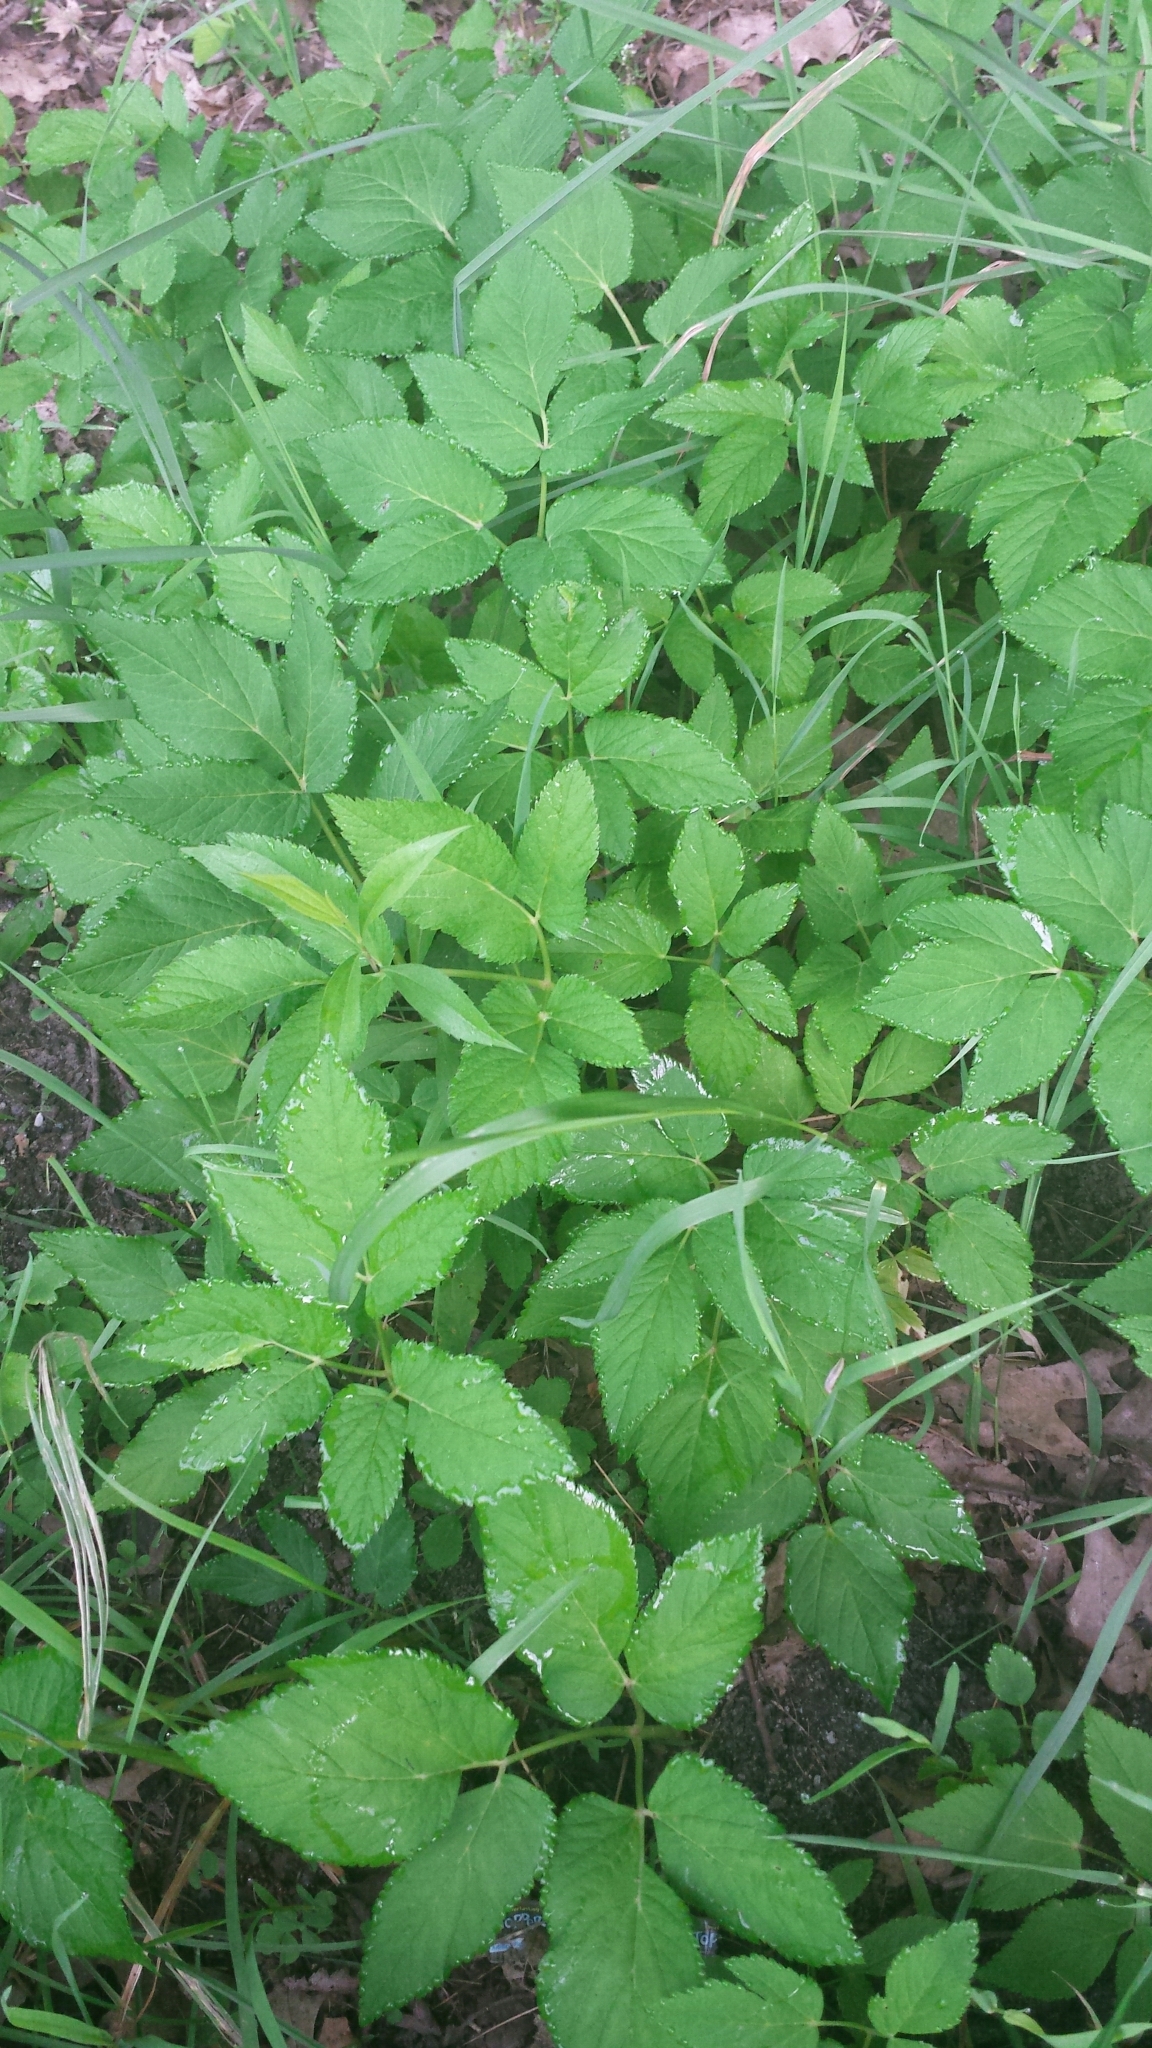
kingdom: Plantae
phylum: Tracheophyta
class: Magnoliopsida
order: Apiales
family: Apiaceae
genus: Aegopodium
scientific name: Aegopodium podagraria
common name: Ground-elder
